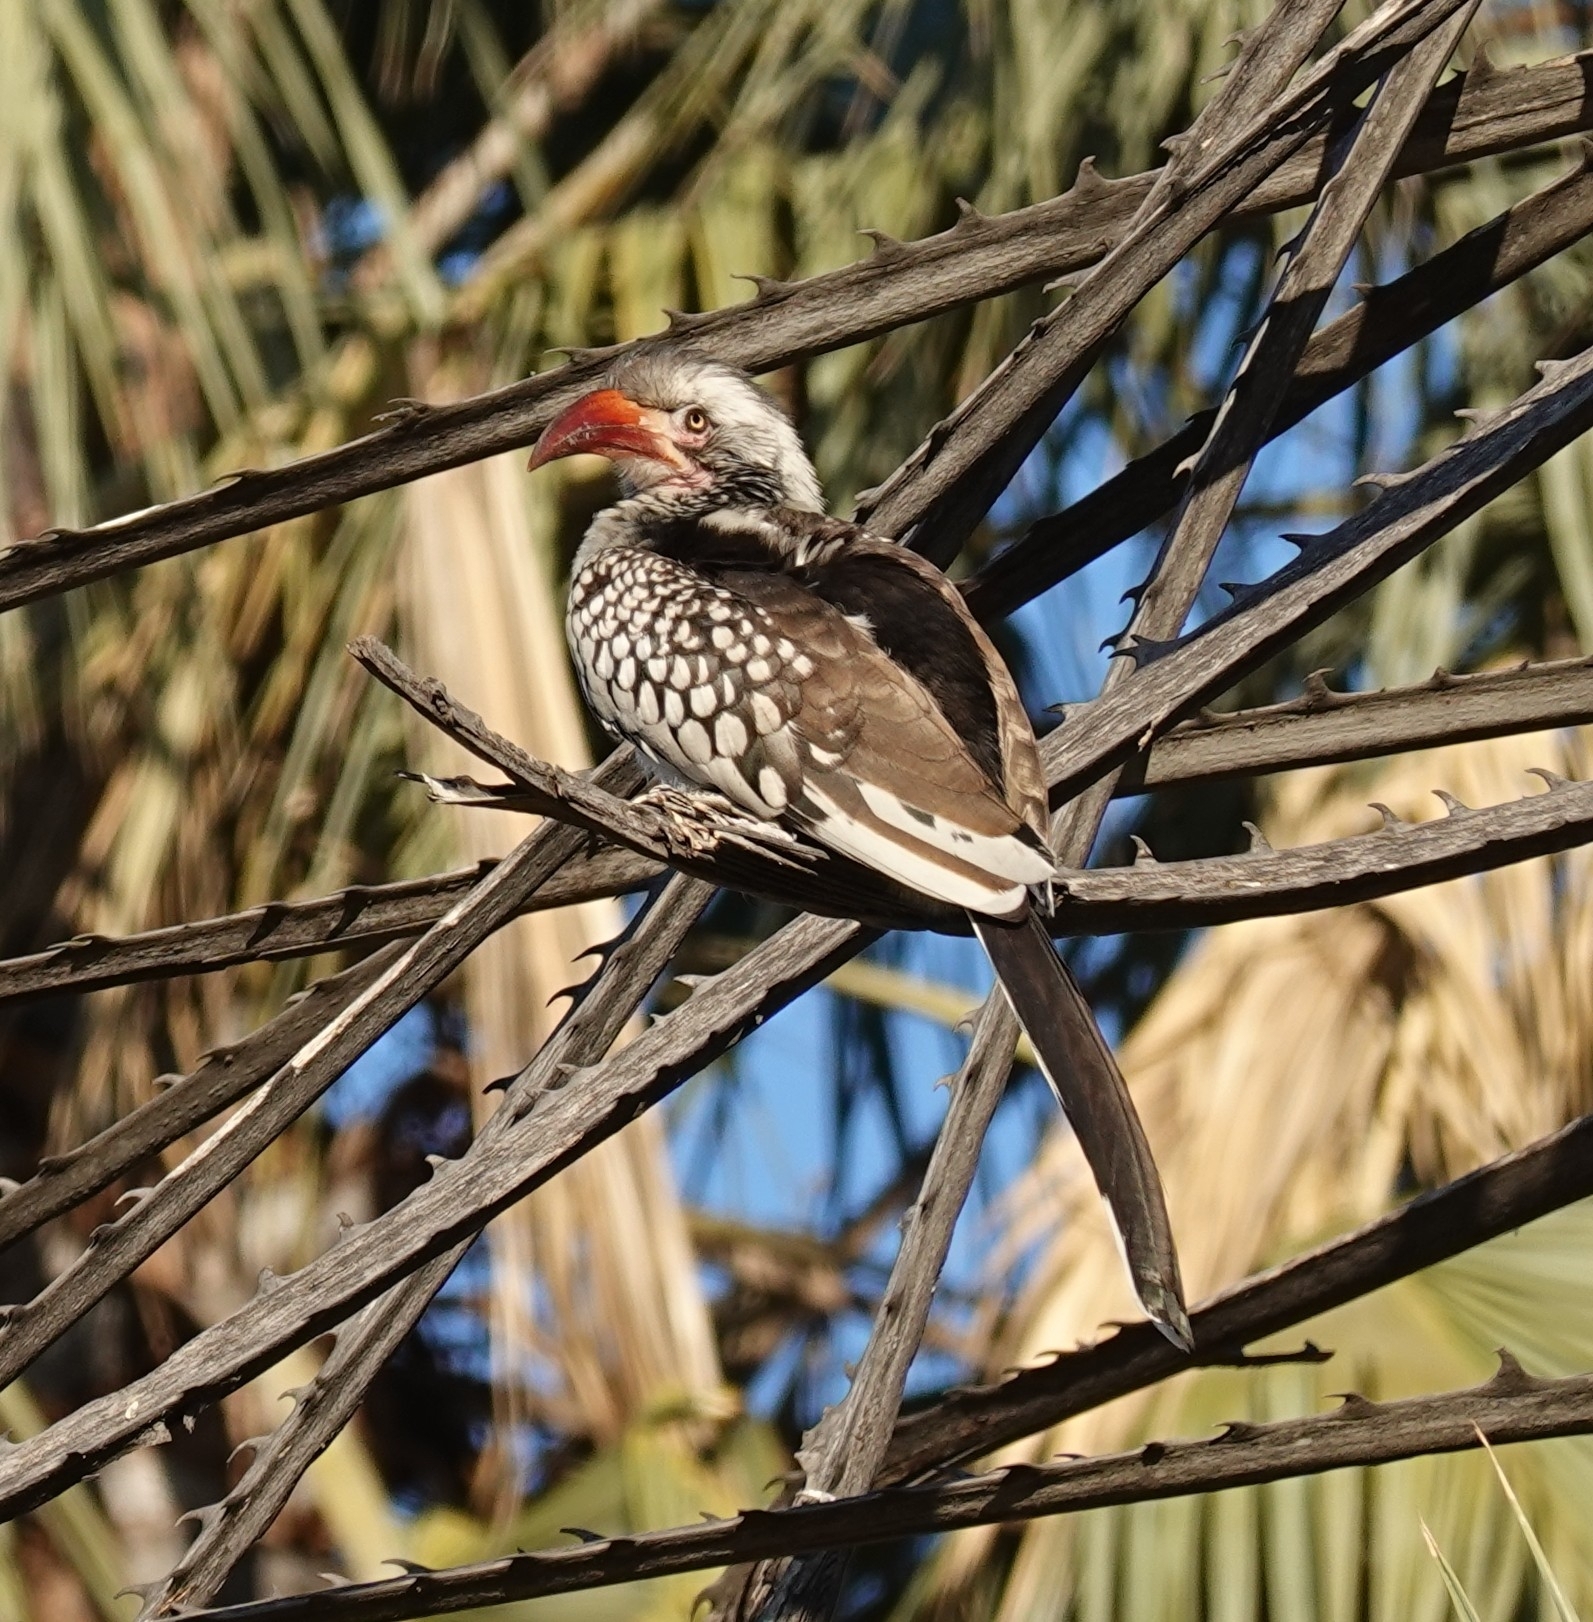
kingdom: Animalia
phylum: Chordata
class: Aves
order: Bucerotiformes
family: Bucerotidae
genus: Tockus
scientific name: Tockus rufirostris
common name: Southern red-billed hornbill
